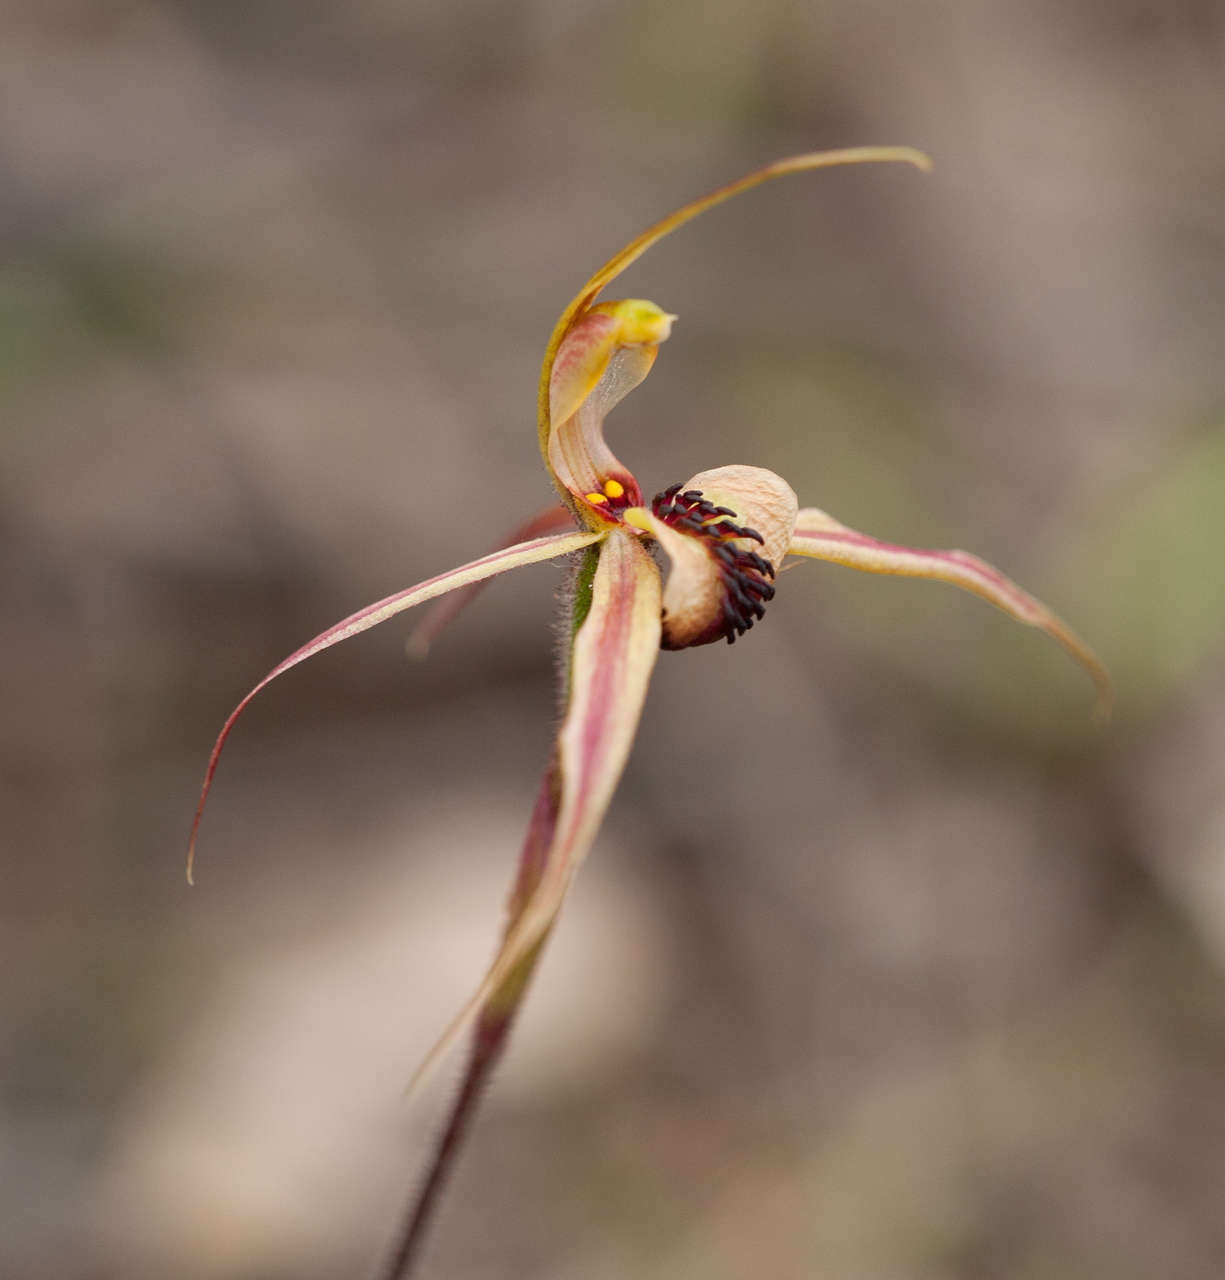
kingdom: Plantae
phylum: Tracheophyta
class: Liliopsida
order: Asparagales
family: Orchidaceae
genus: Caladenia
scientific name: Caladenia clavigera
